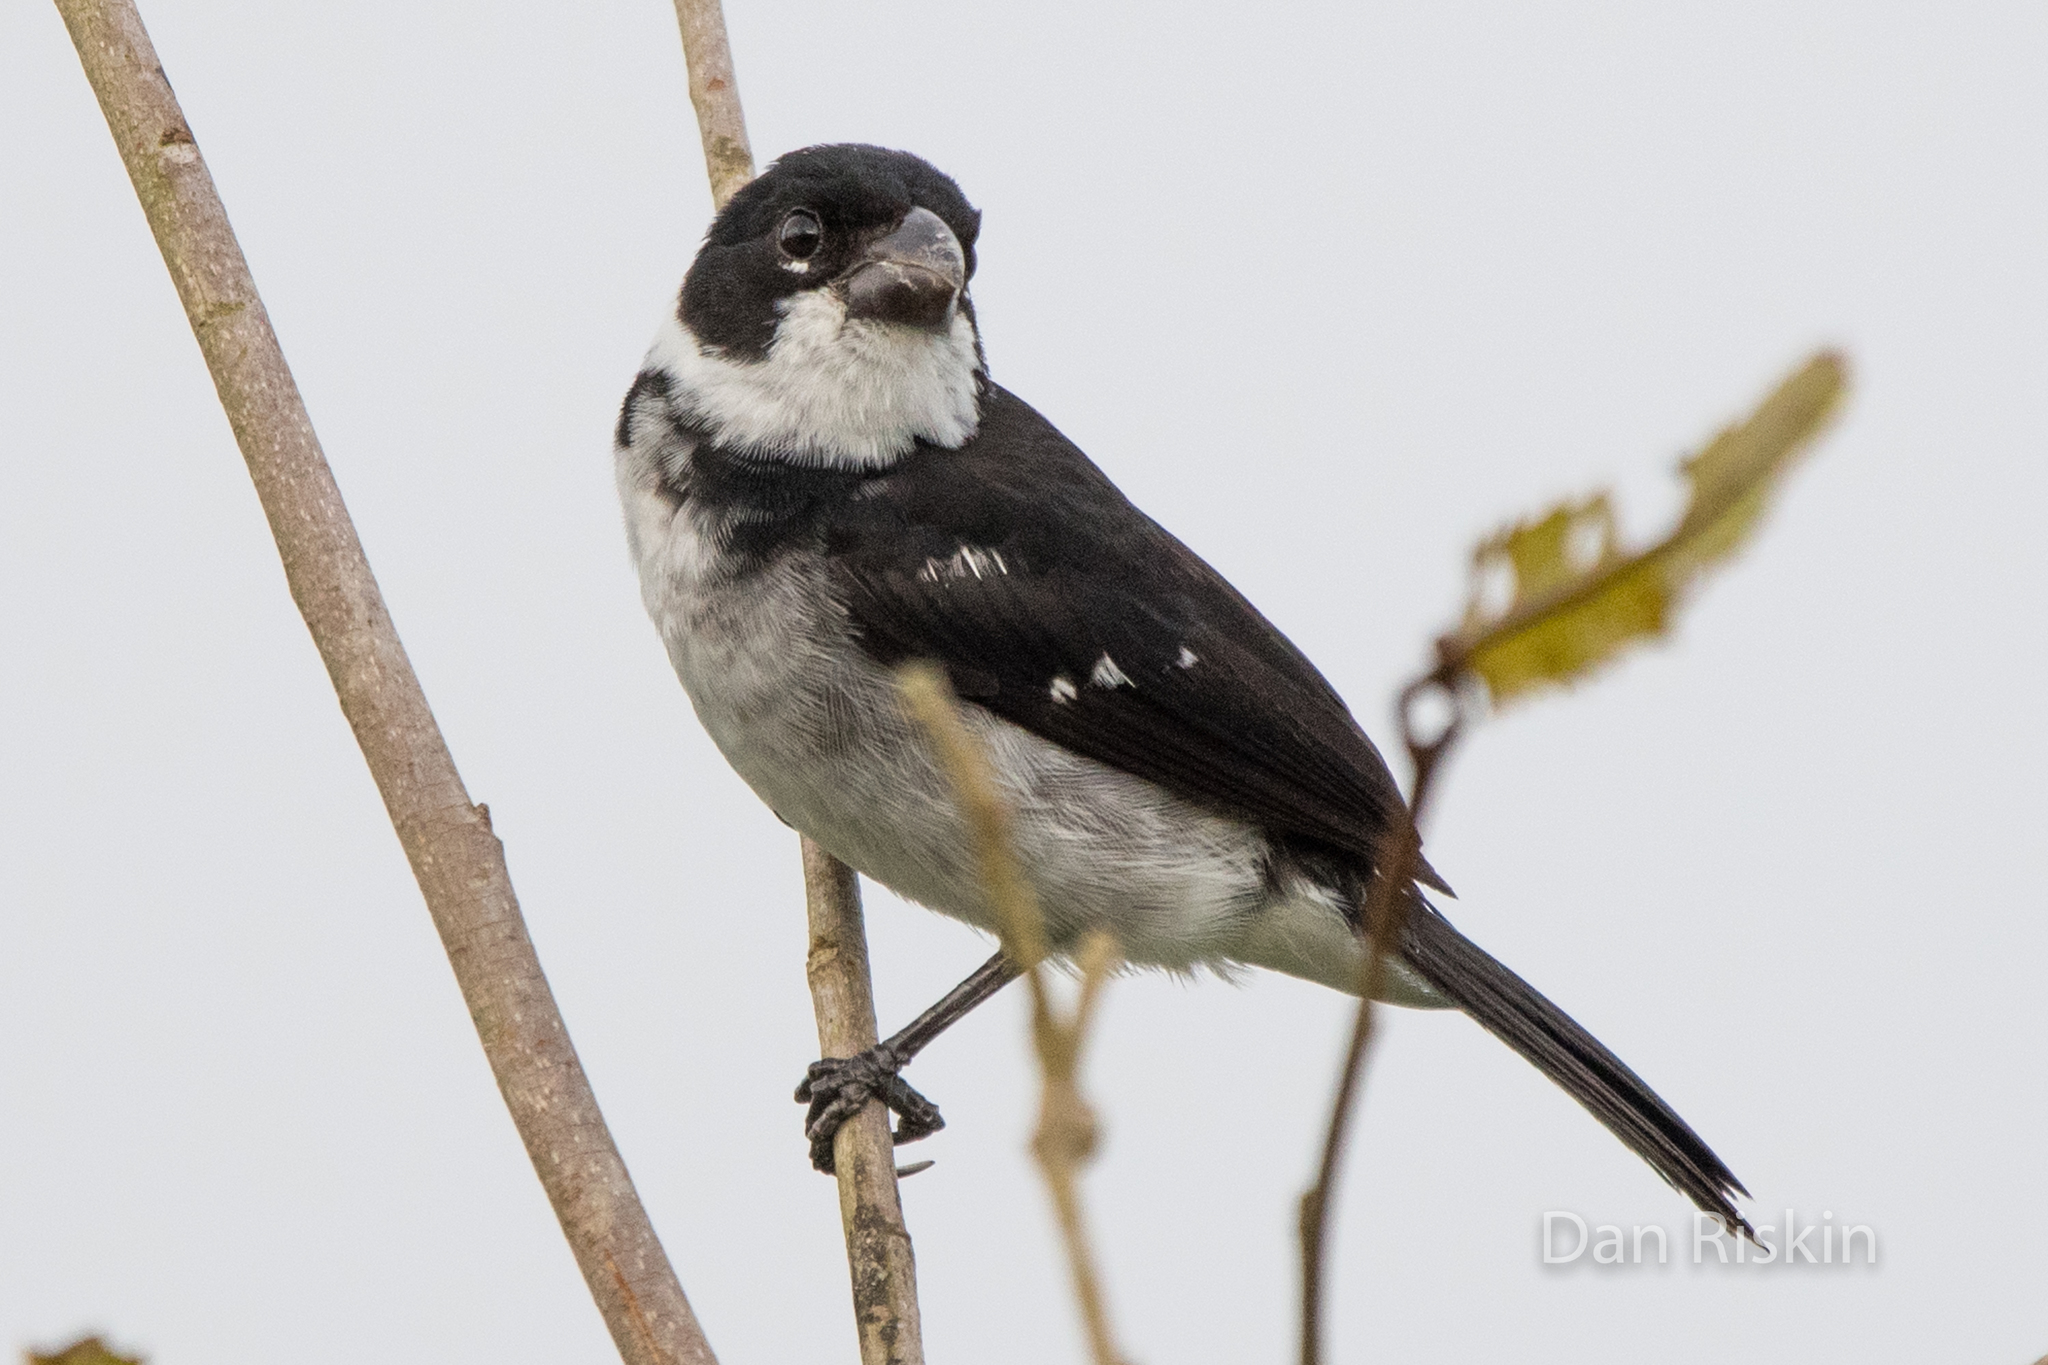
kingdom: Animalia
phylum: Chordata
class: Aves
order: Passeriformes
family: Thraupidae
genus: Sporophila
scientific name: Sporophila americana
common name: Wing-barred seedeater
